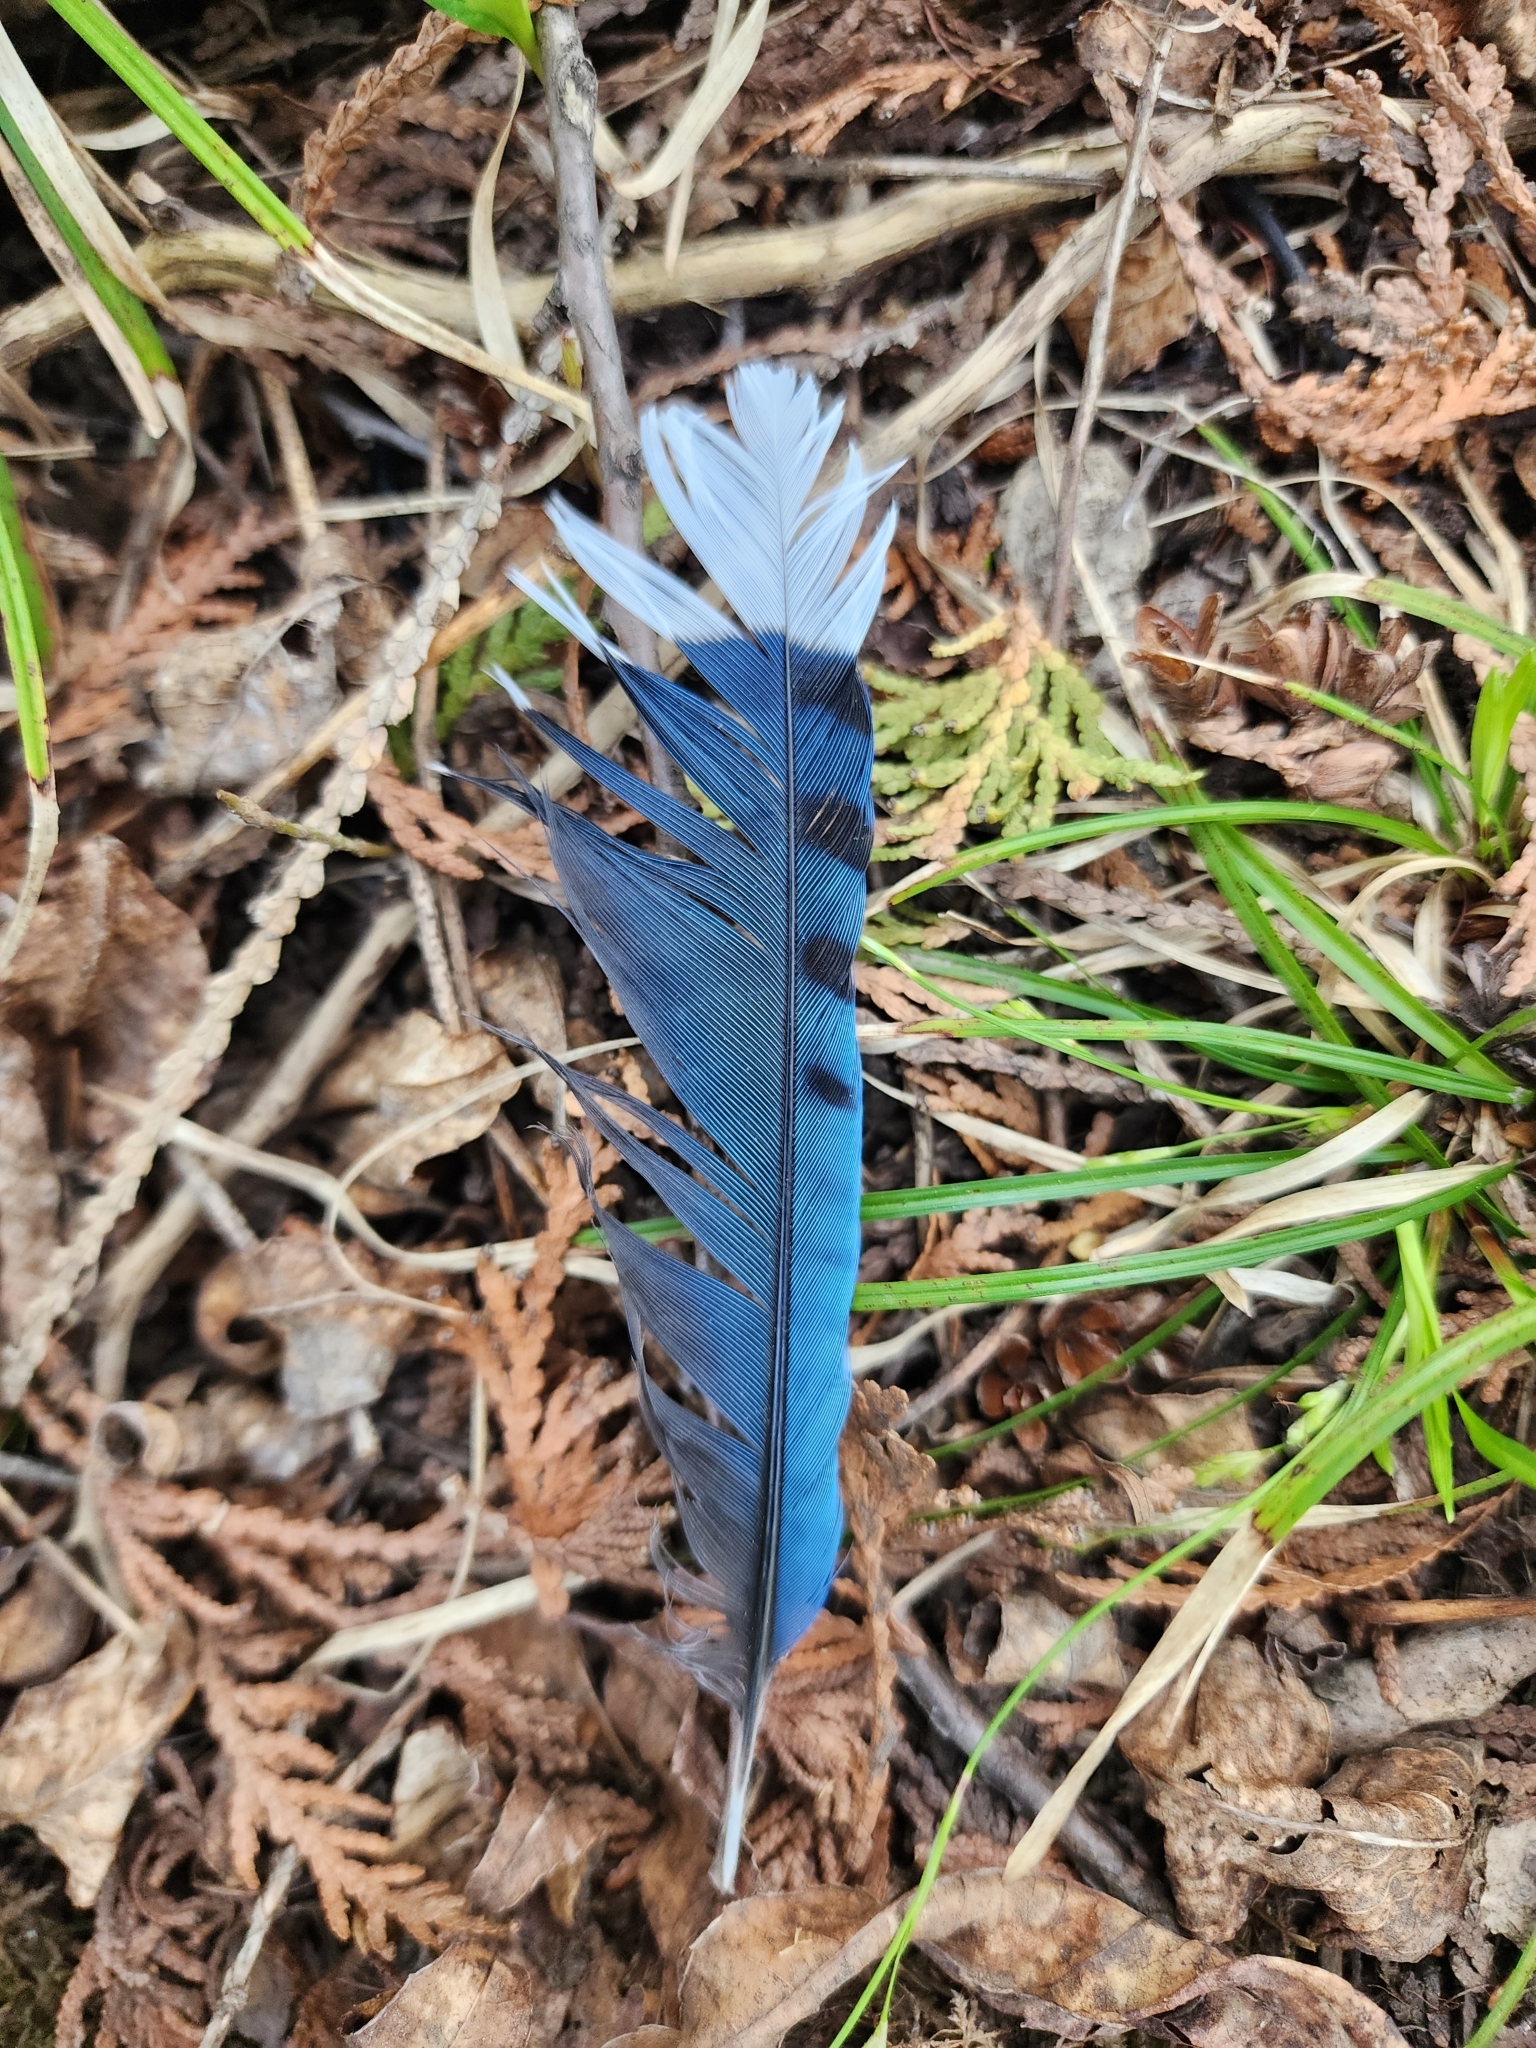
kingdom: Animalia
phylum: Chordata
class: Aves
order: Passeriformes
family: Corvidae
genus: Cyanocitta
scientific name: Cyanocitta cristata
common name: Blue jay
